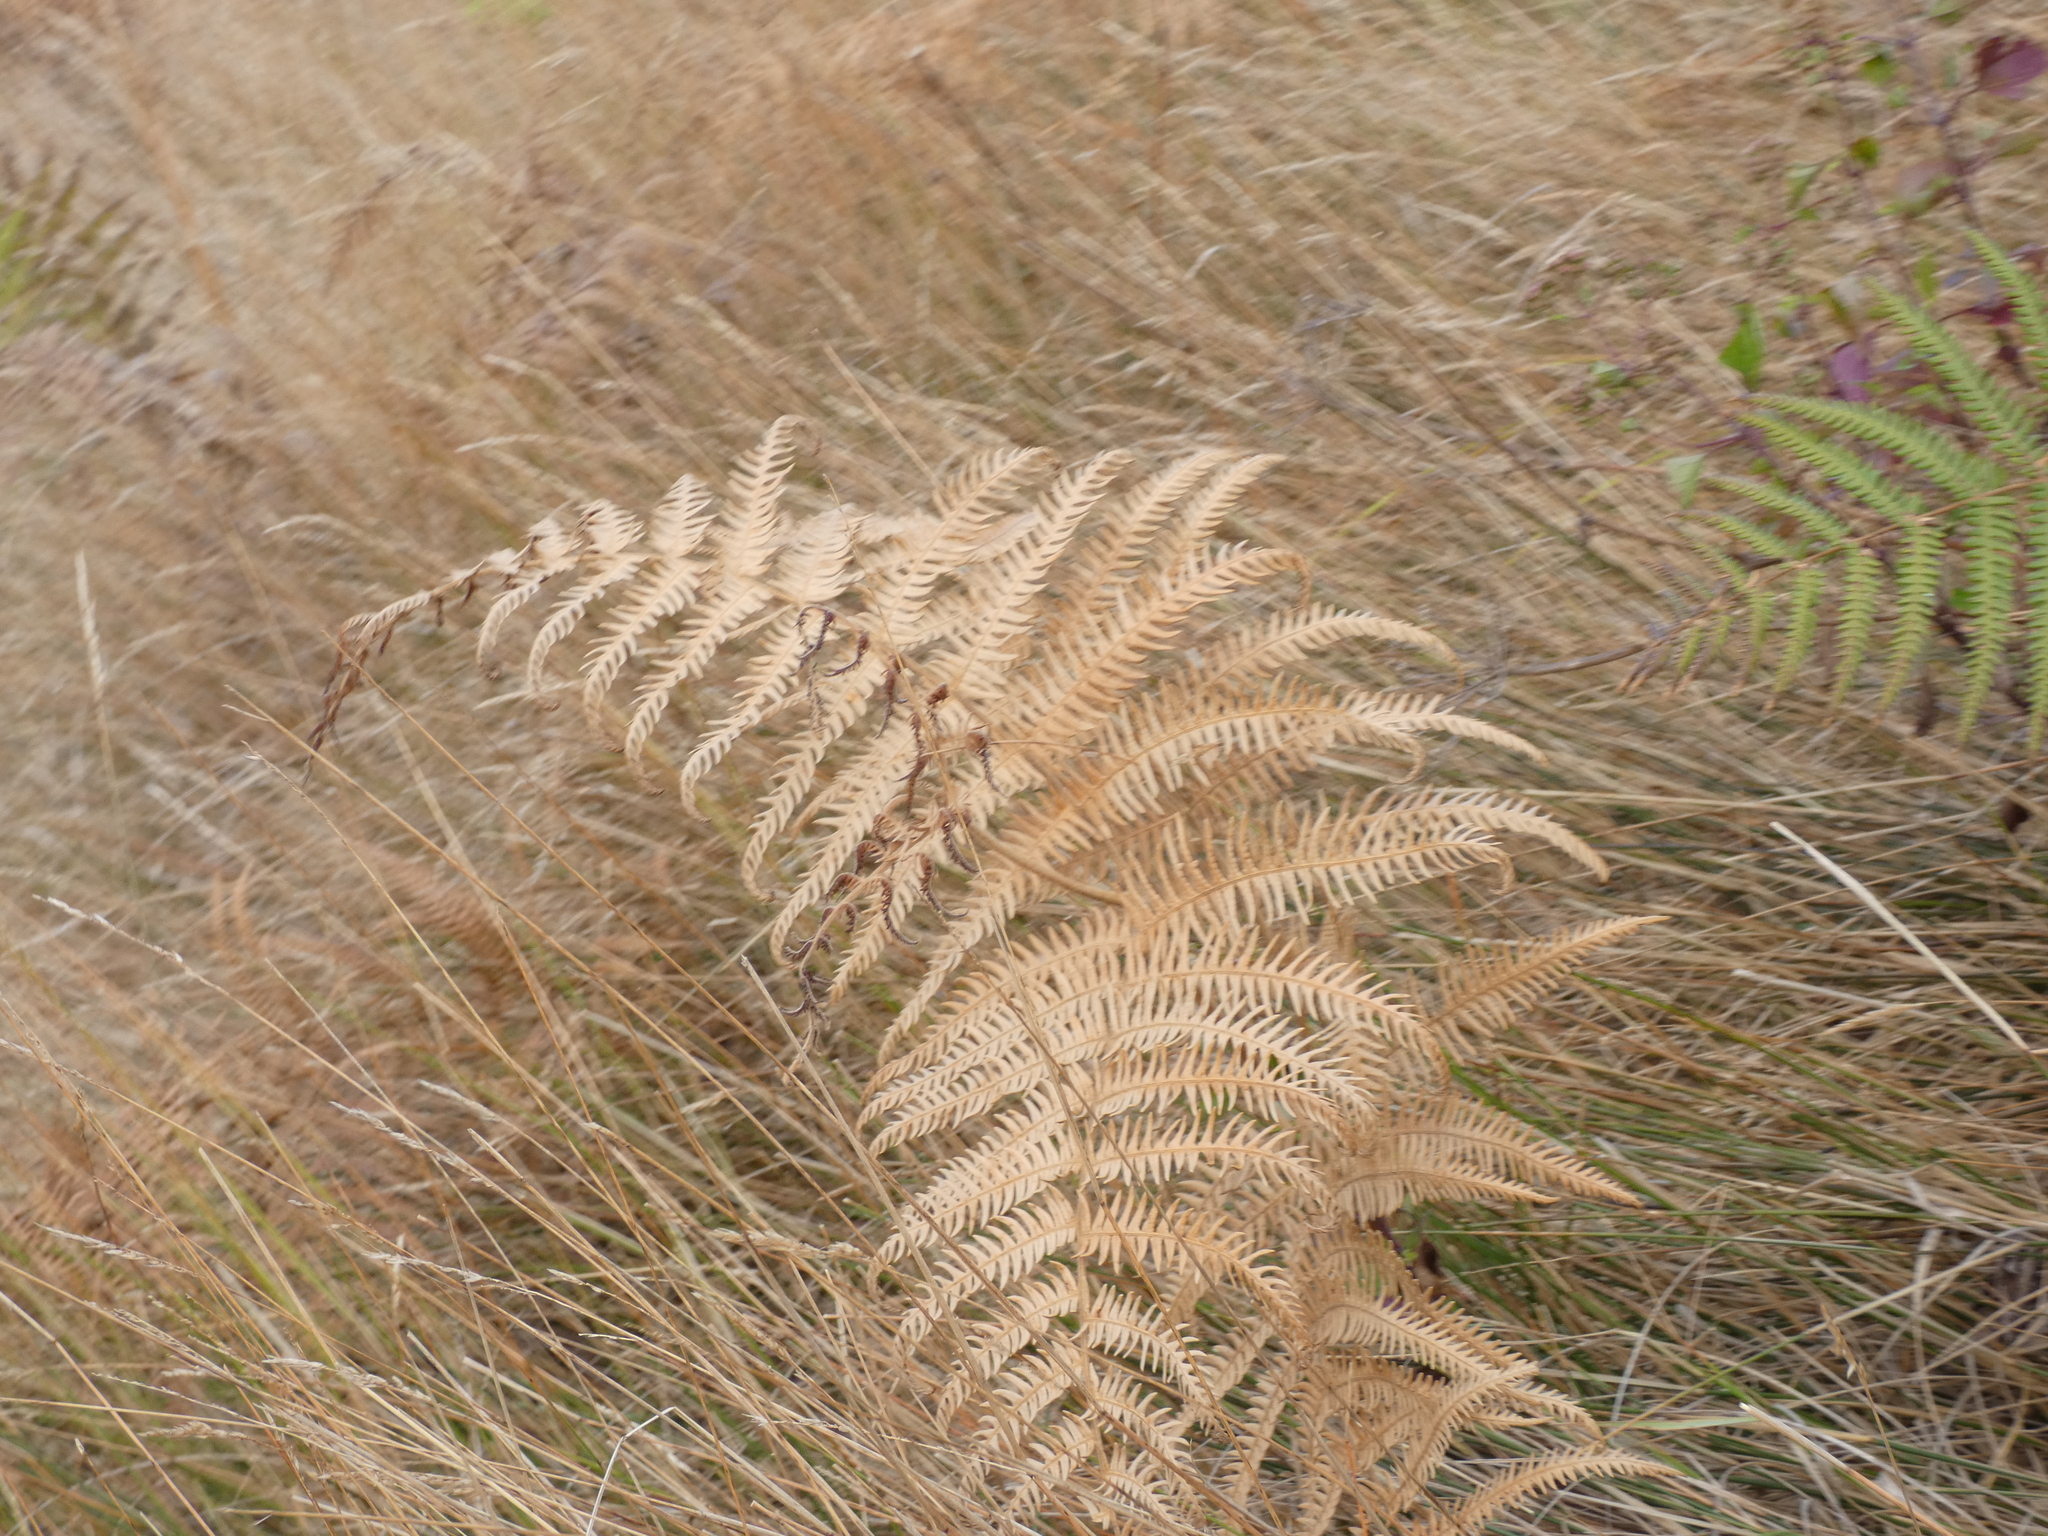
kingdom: Plantae
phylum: Tracheophyta
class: Polypodiopsida
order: Polypodiales
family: Dennstaedtiaceae
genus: Pteridium
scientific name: Pteridium aquilinum
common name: Bracken
